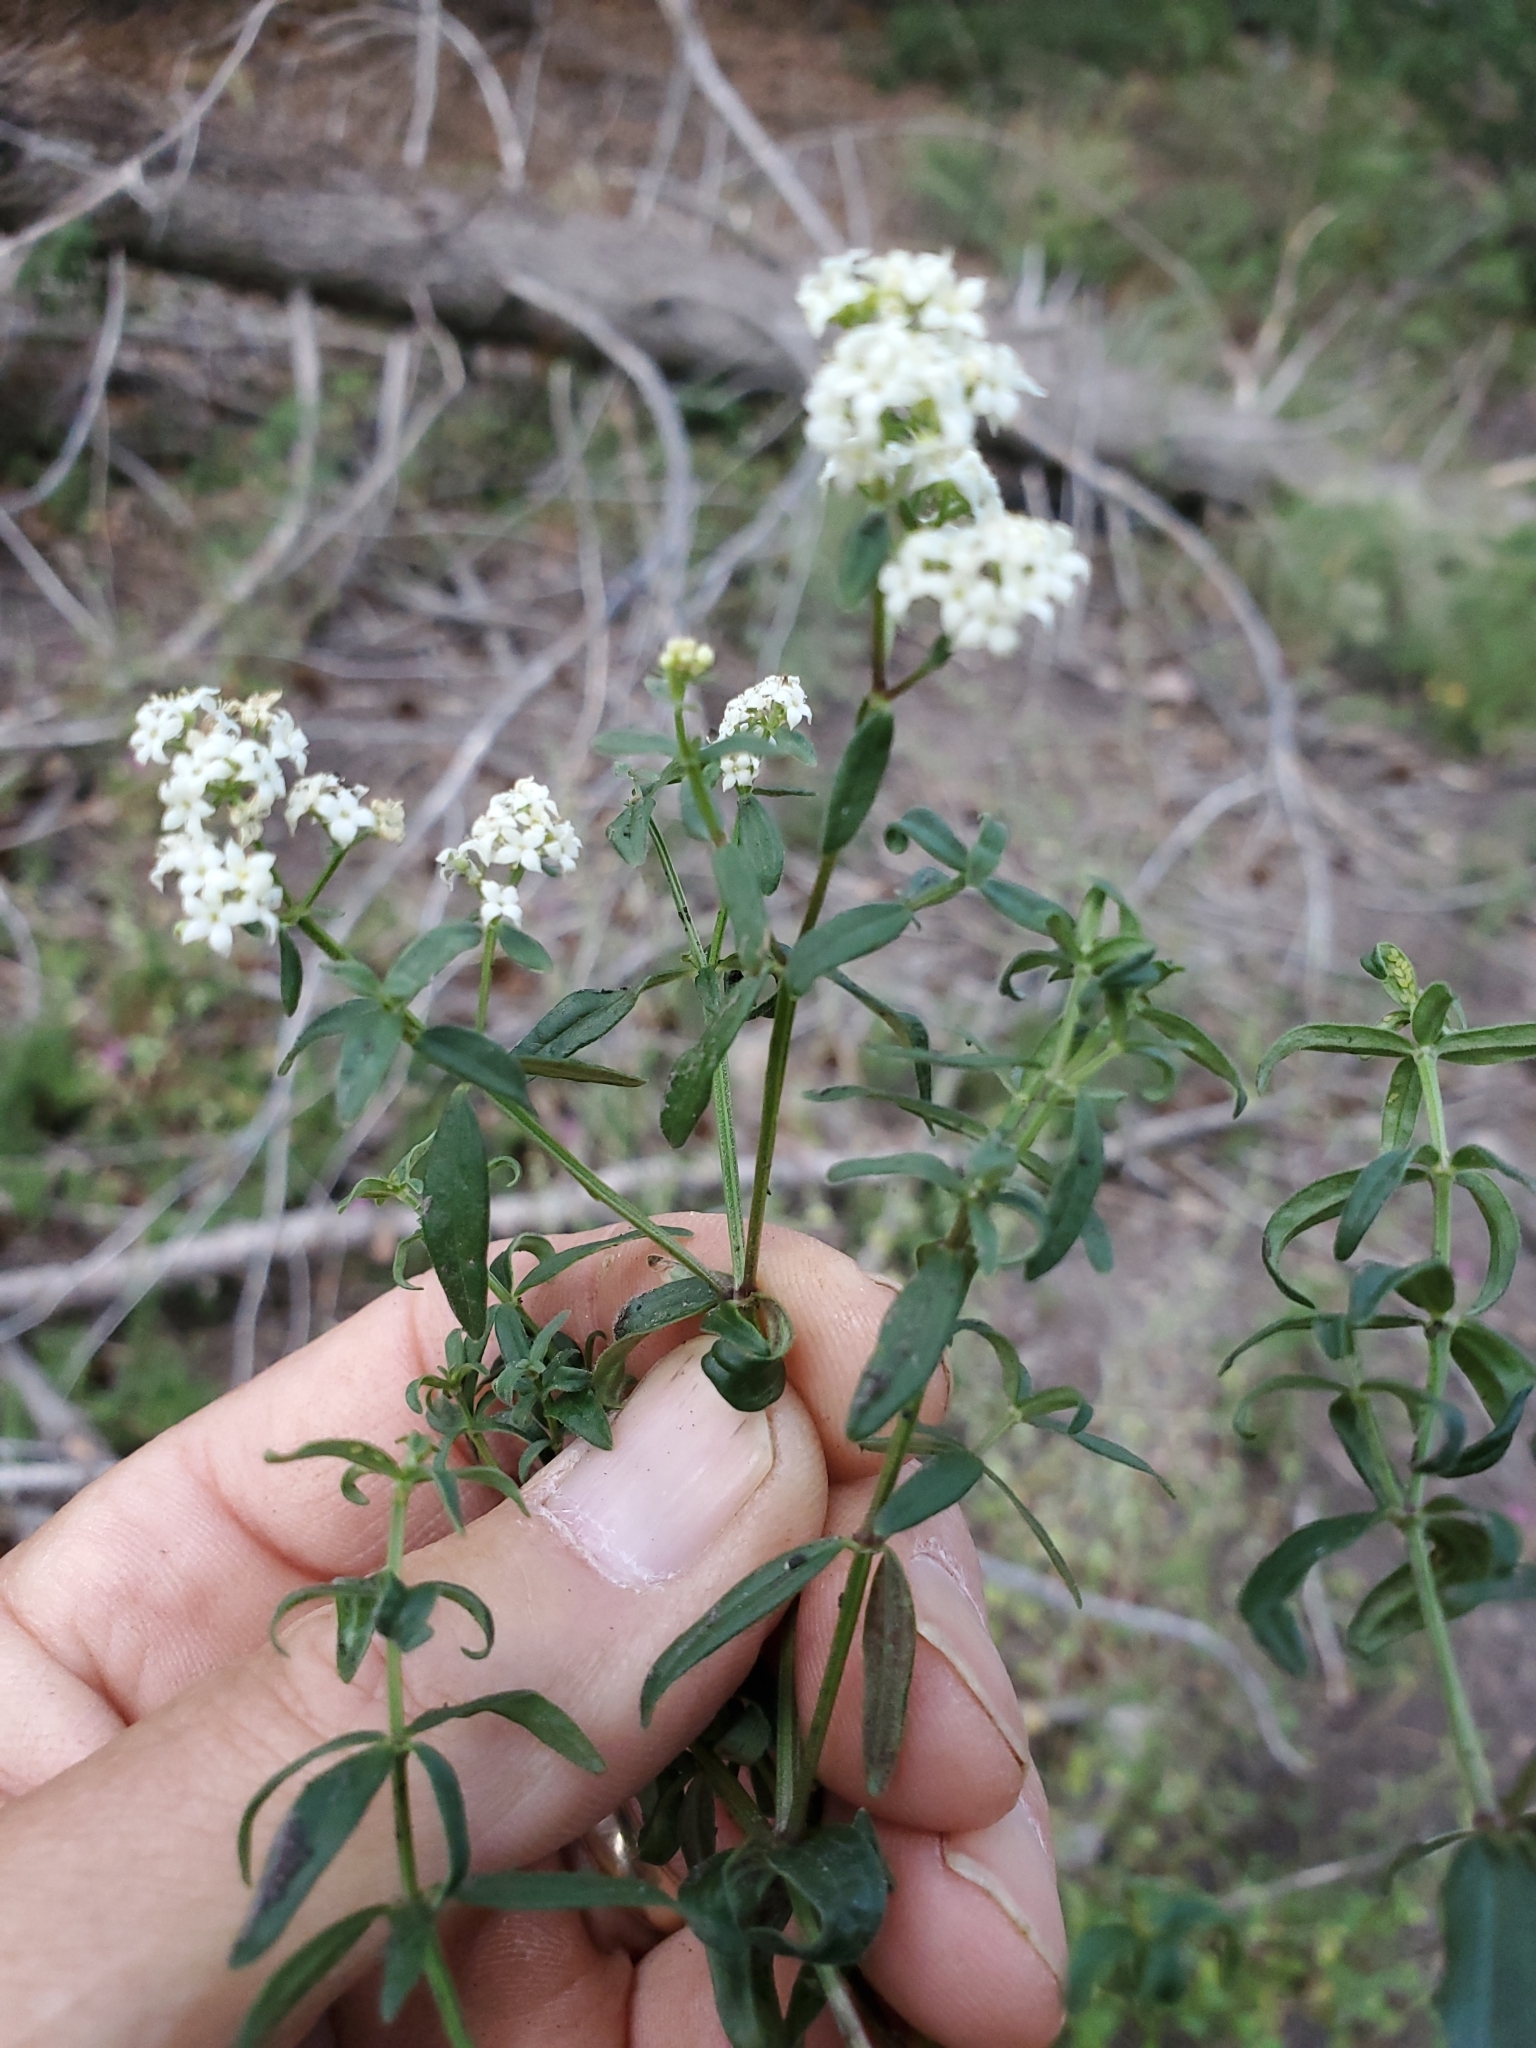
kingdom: Plantae
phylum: Tracheophyta
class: Magnoliopsida
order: Gentianales
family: Rubiaceae
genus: Galium
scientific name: Galium boreale
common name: Northern bedstraw
